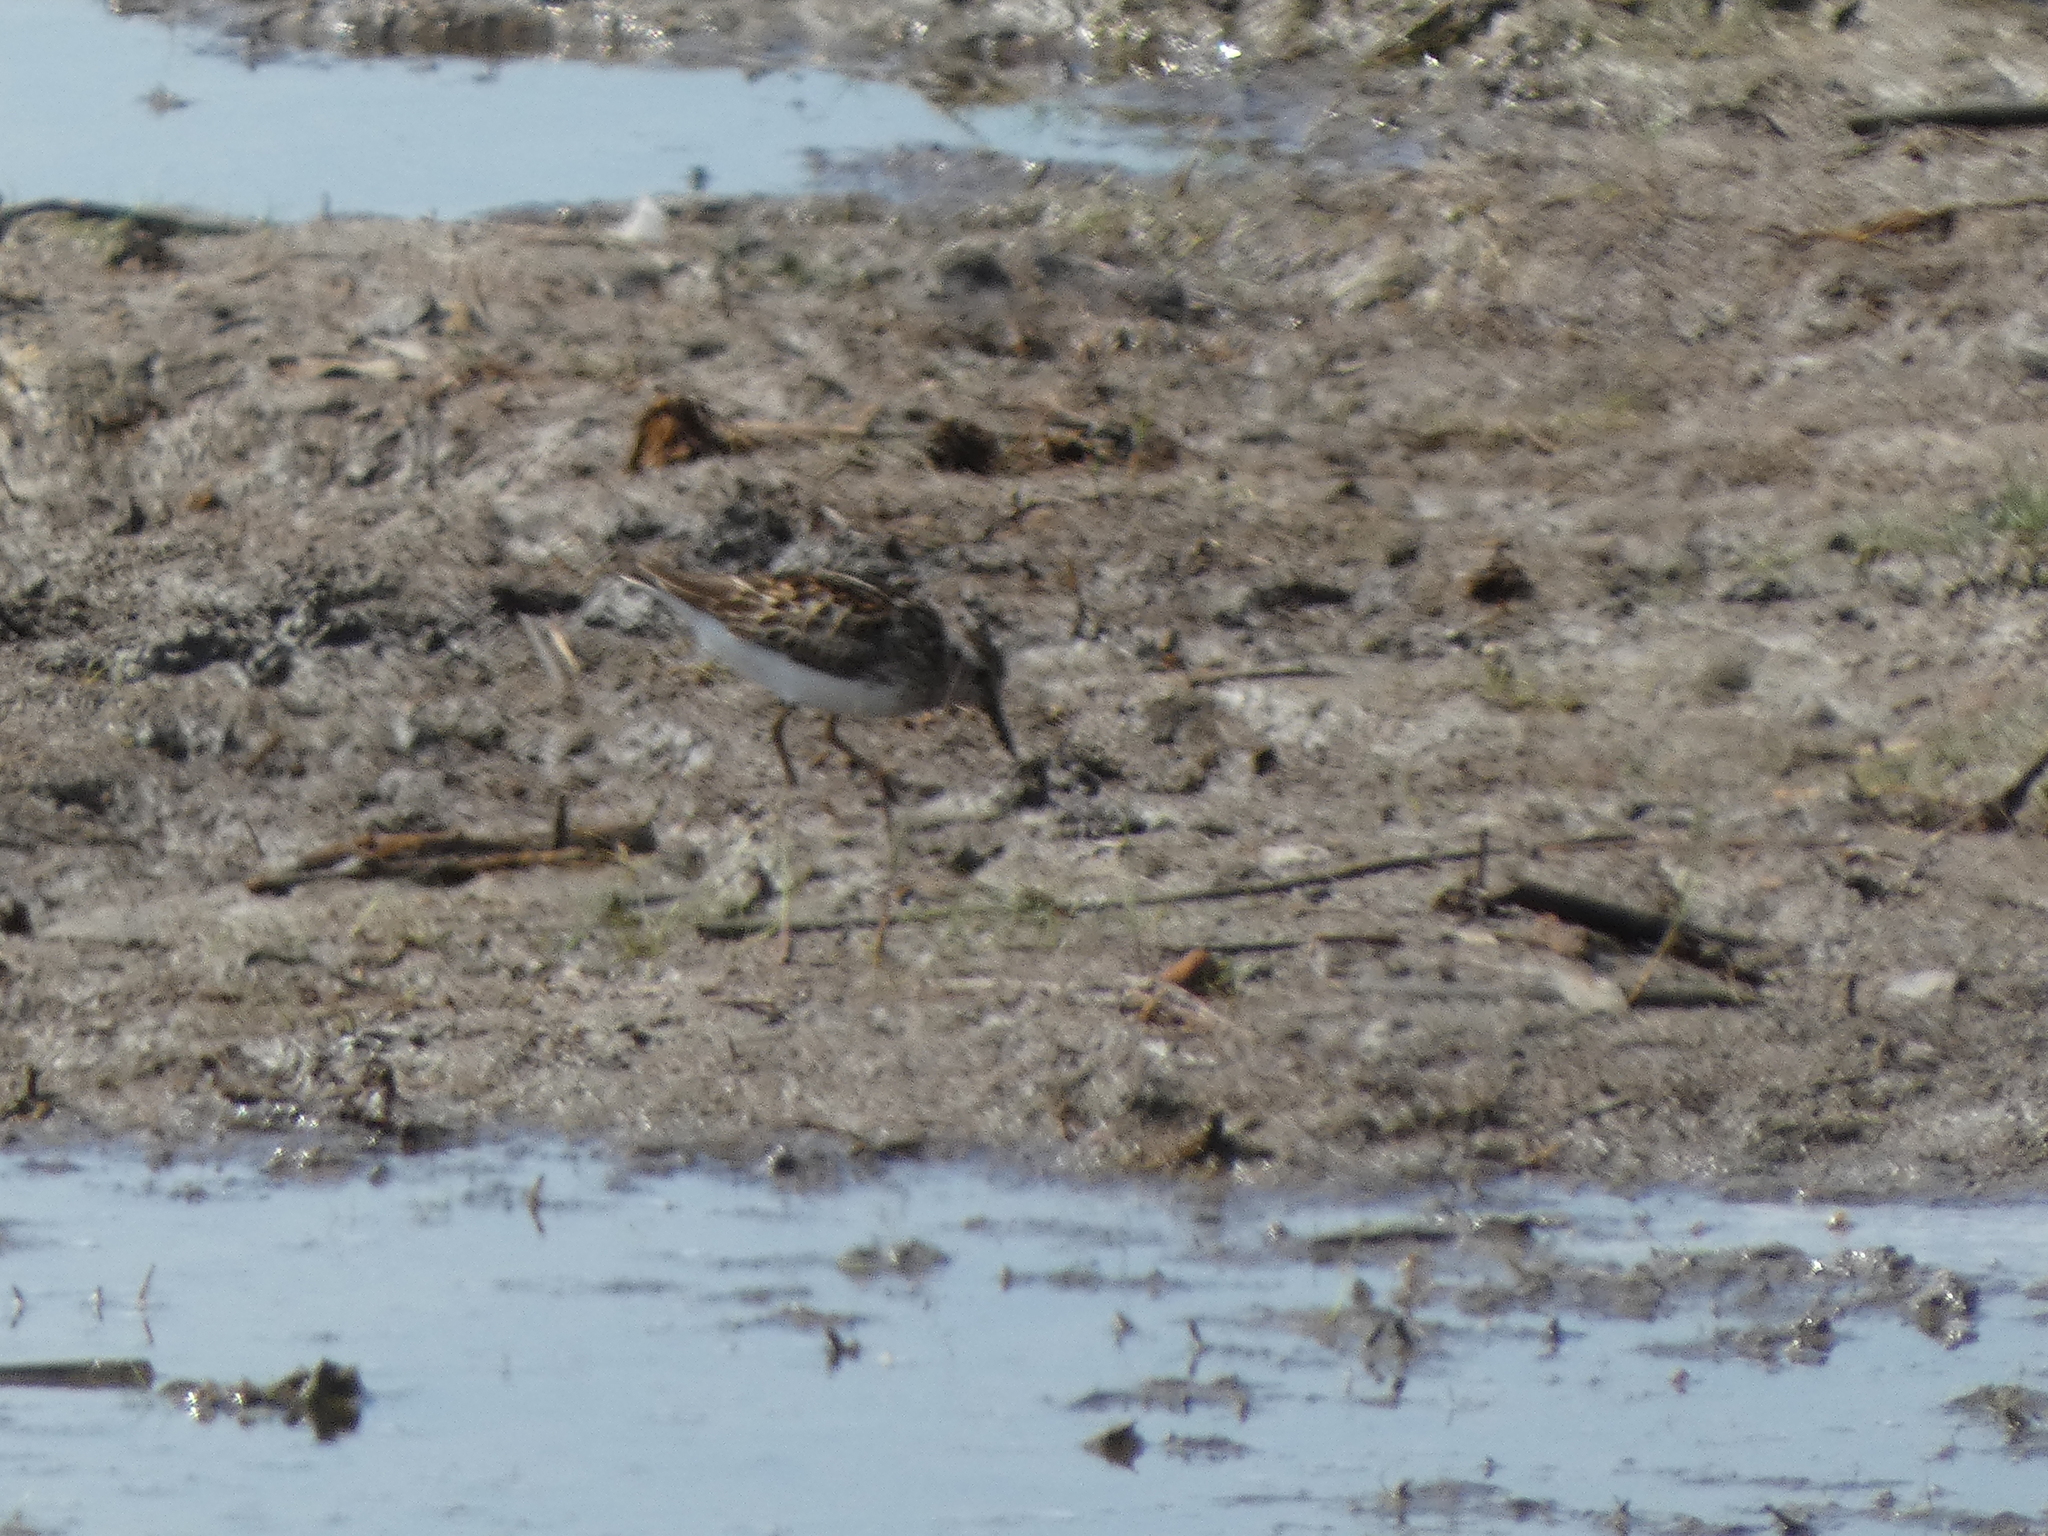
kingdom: Animalia
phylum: Chordata
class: Aves
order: Charadriiformes
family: Scolopacidae
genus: Calidris
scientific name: Calidris minutilla
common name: Least sandpiper
